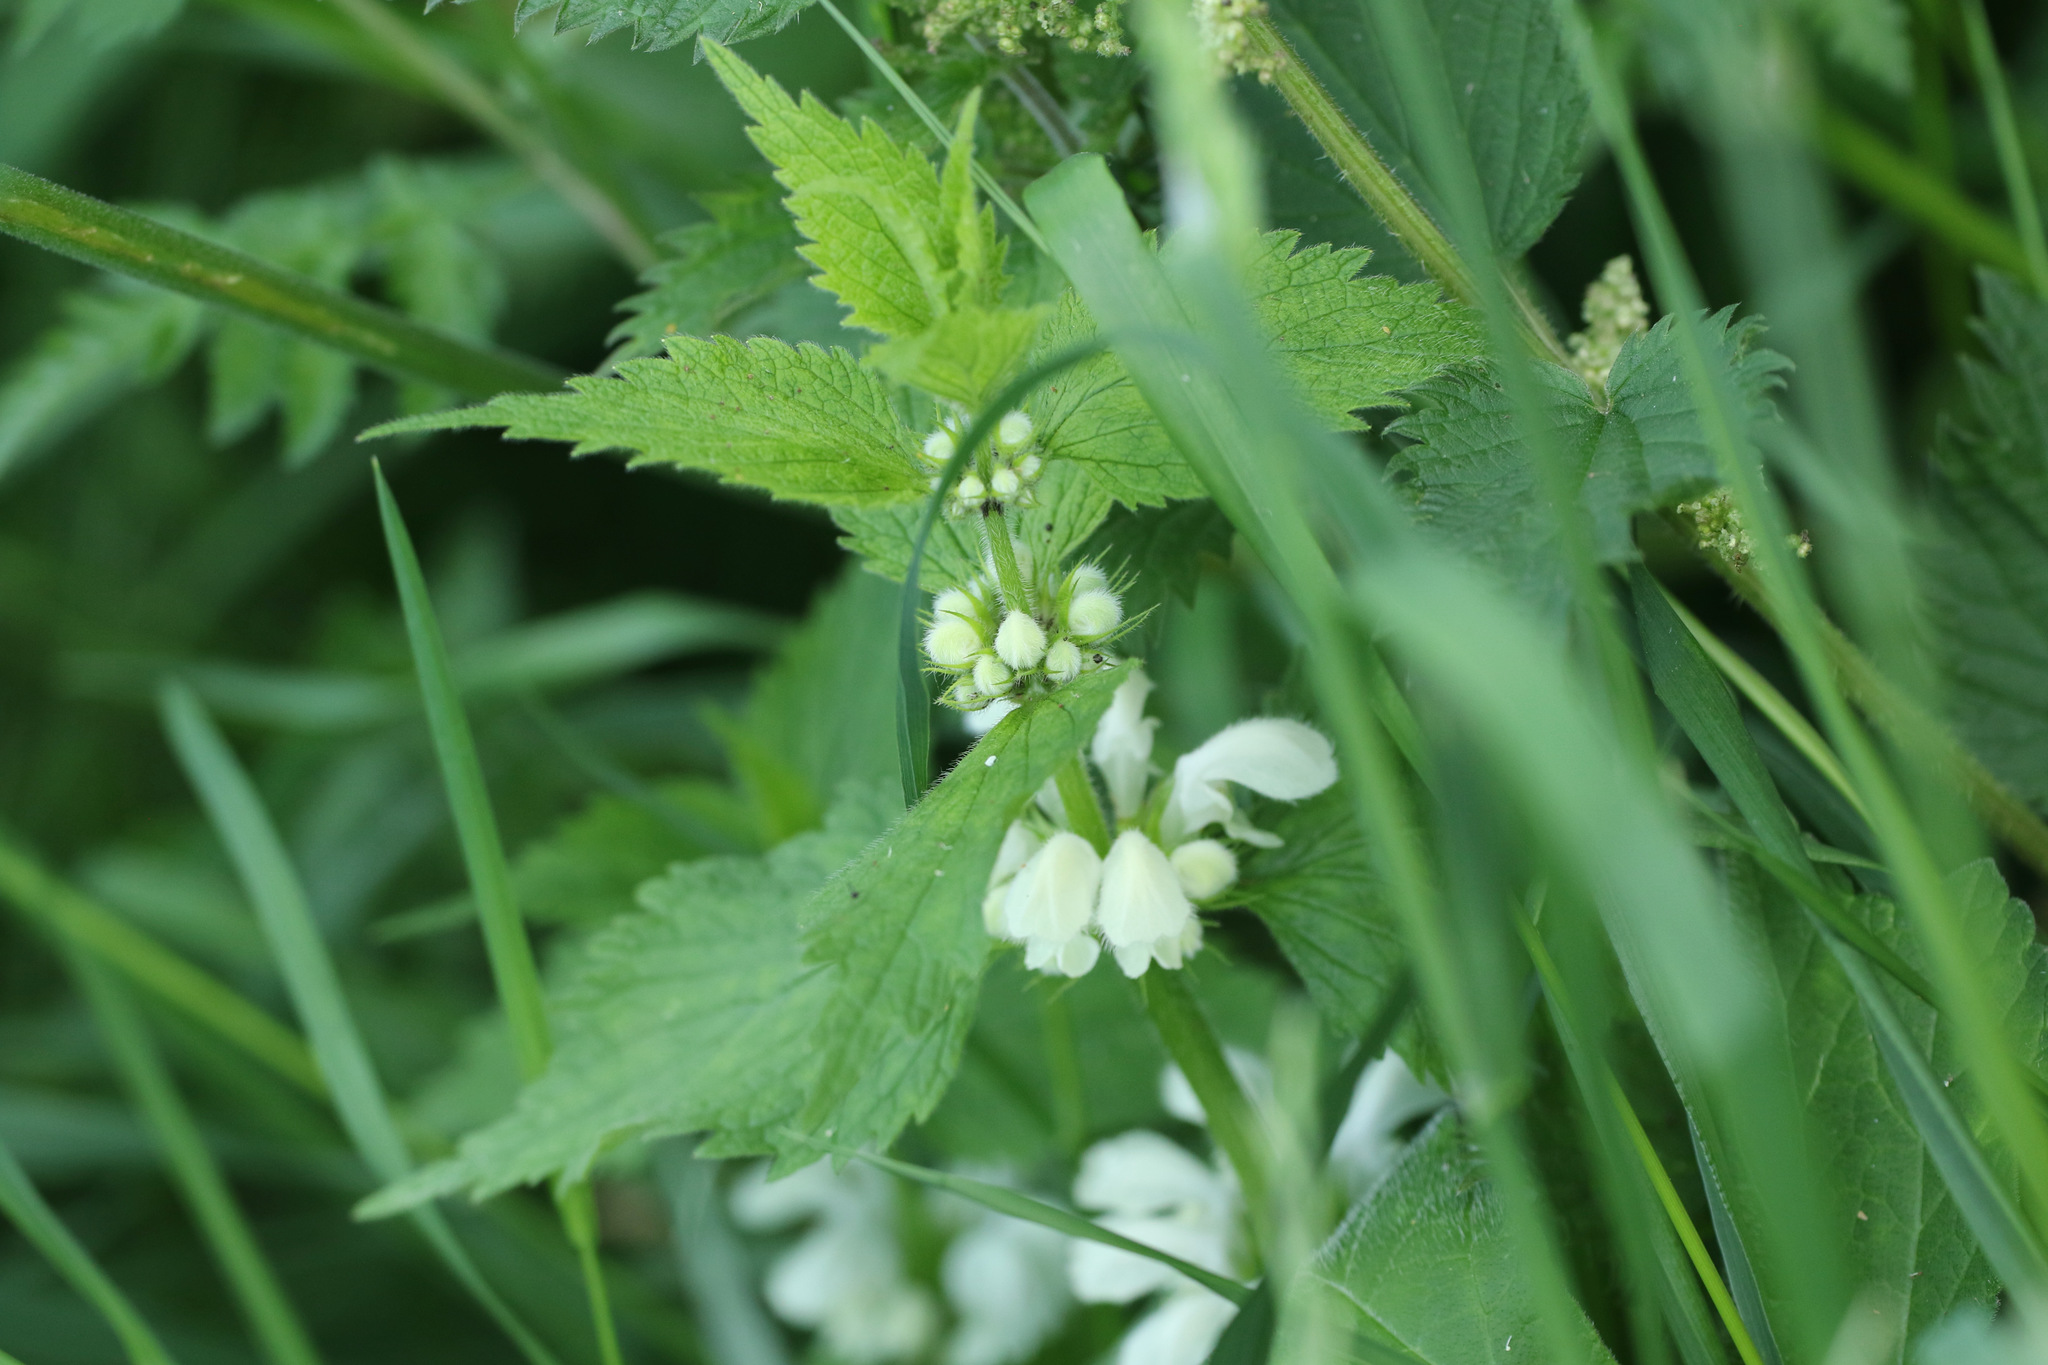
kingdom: Plantae
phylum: Tracheophyta
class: Magnoliopsida
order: Lamiales
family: Lamiaceae
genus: Lamium
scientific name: Lamium album
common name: White dead-nettle
